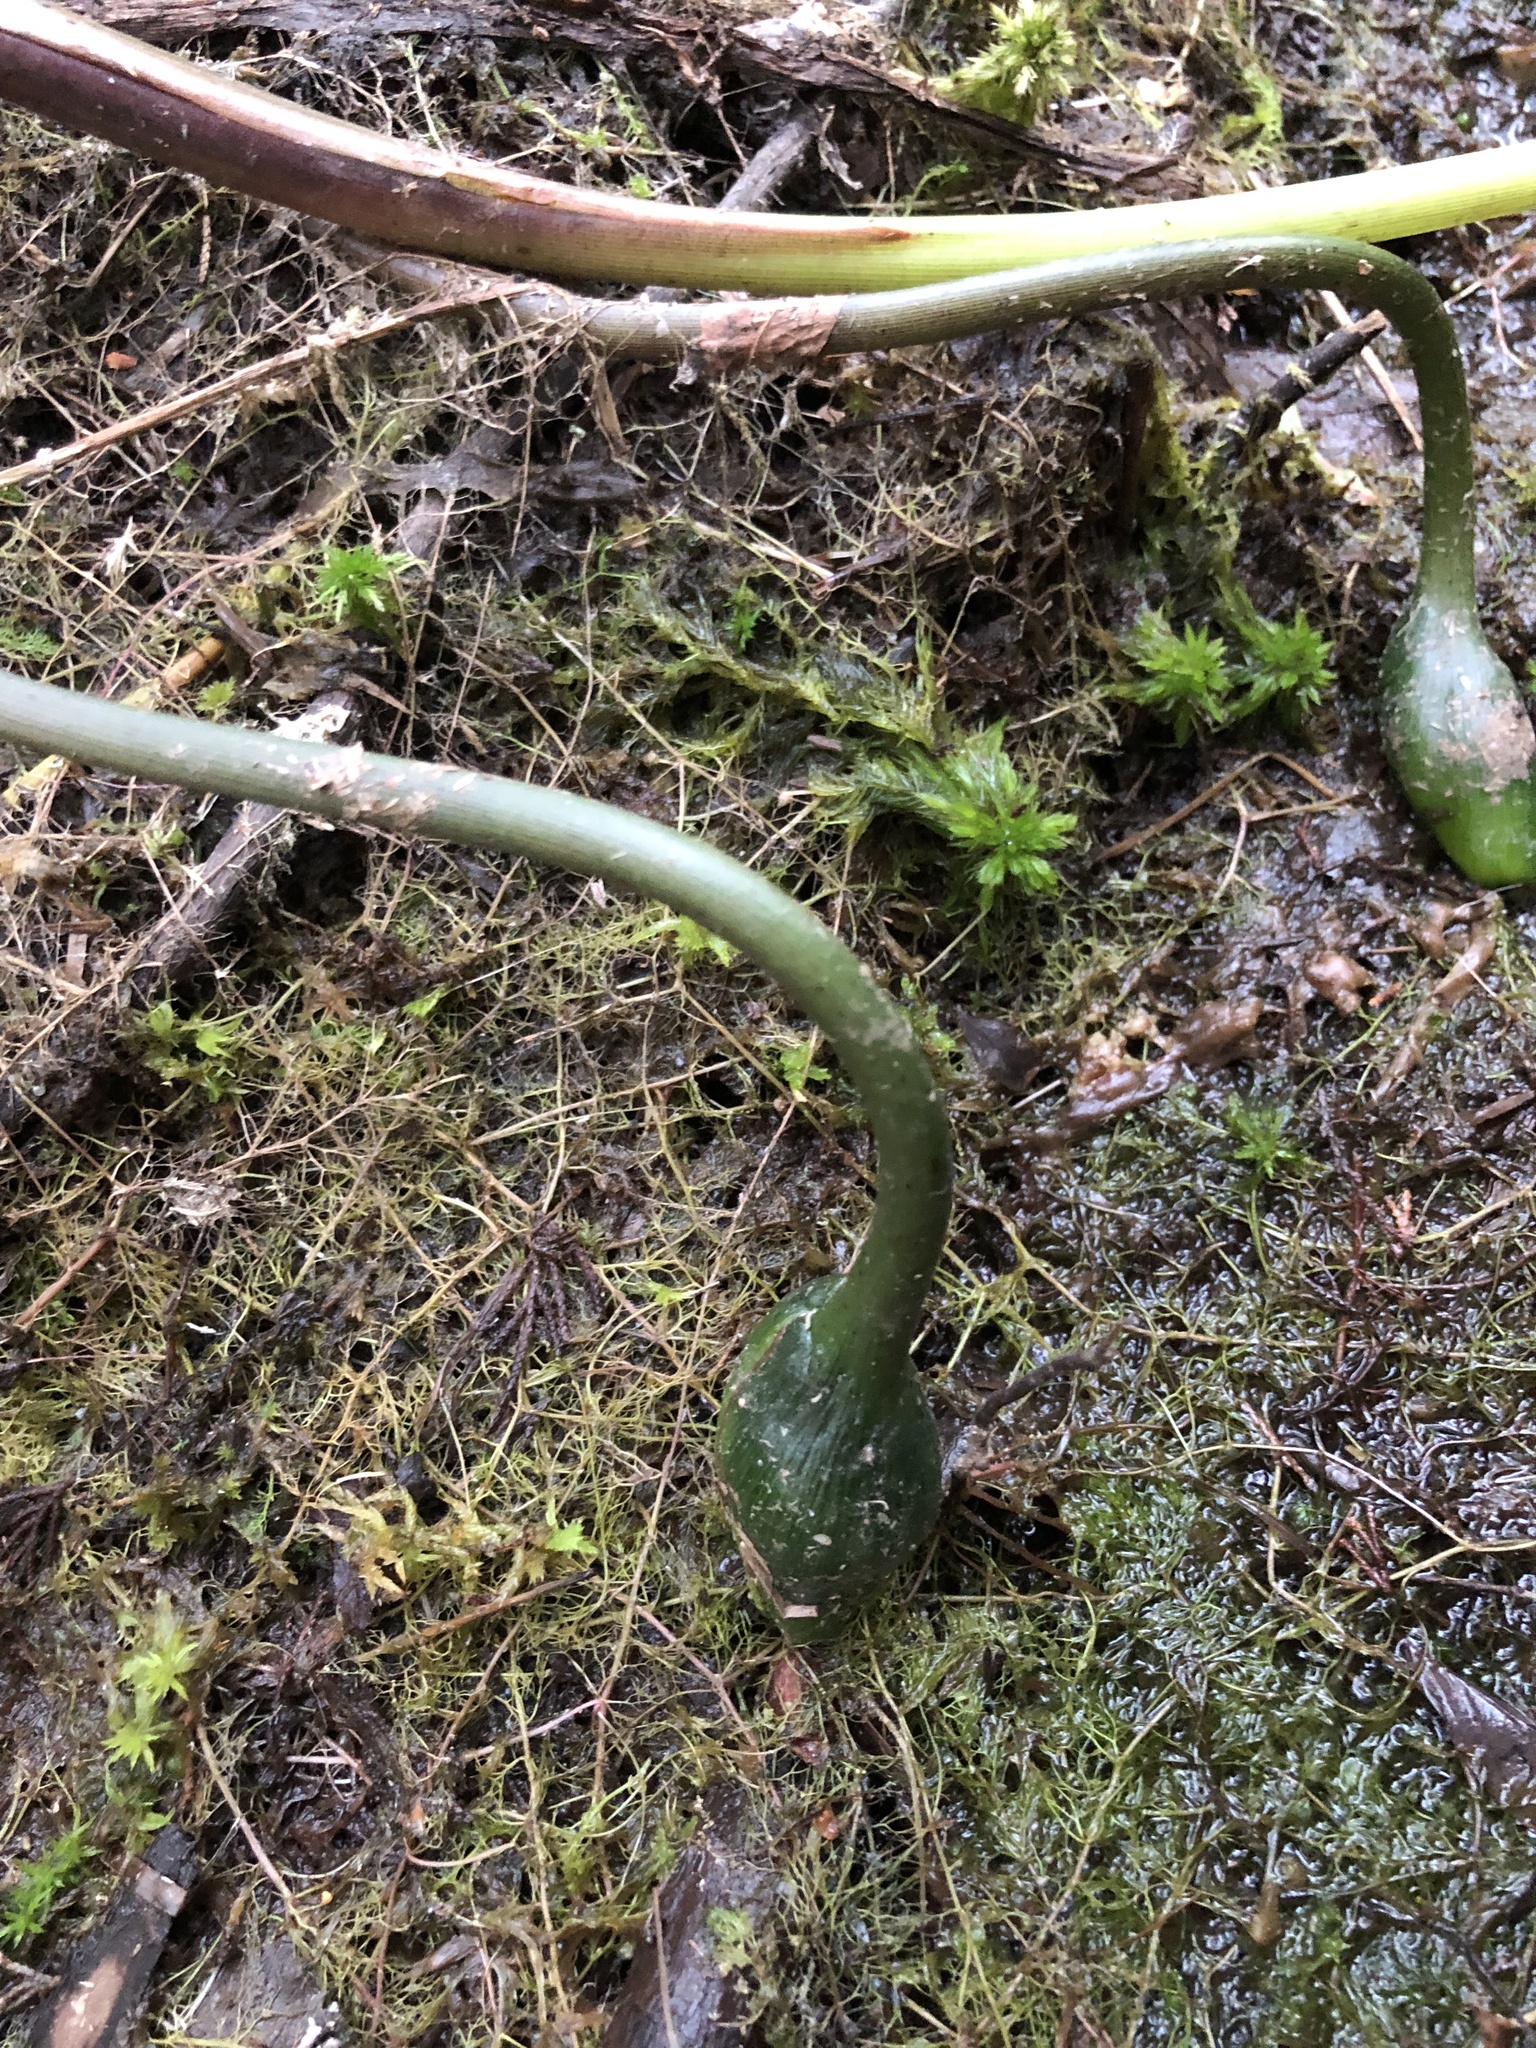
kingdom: Plantae
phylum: Tracheophyta
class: Liliopsida
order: Alismatales
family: Araceae
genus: Peltandra
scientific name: Peltandra virginica
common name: Arrow arum
